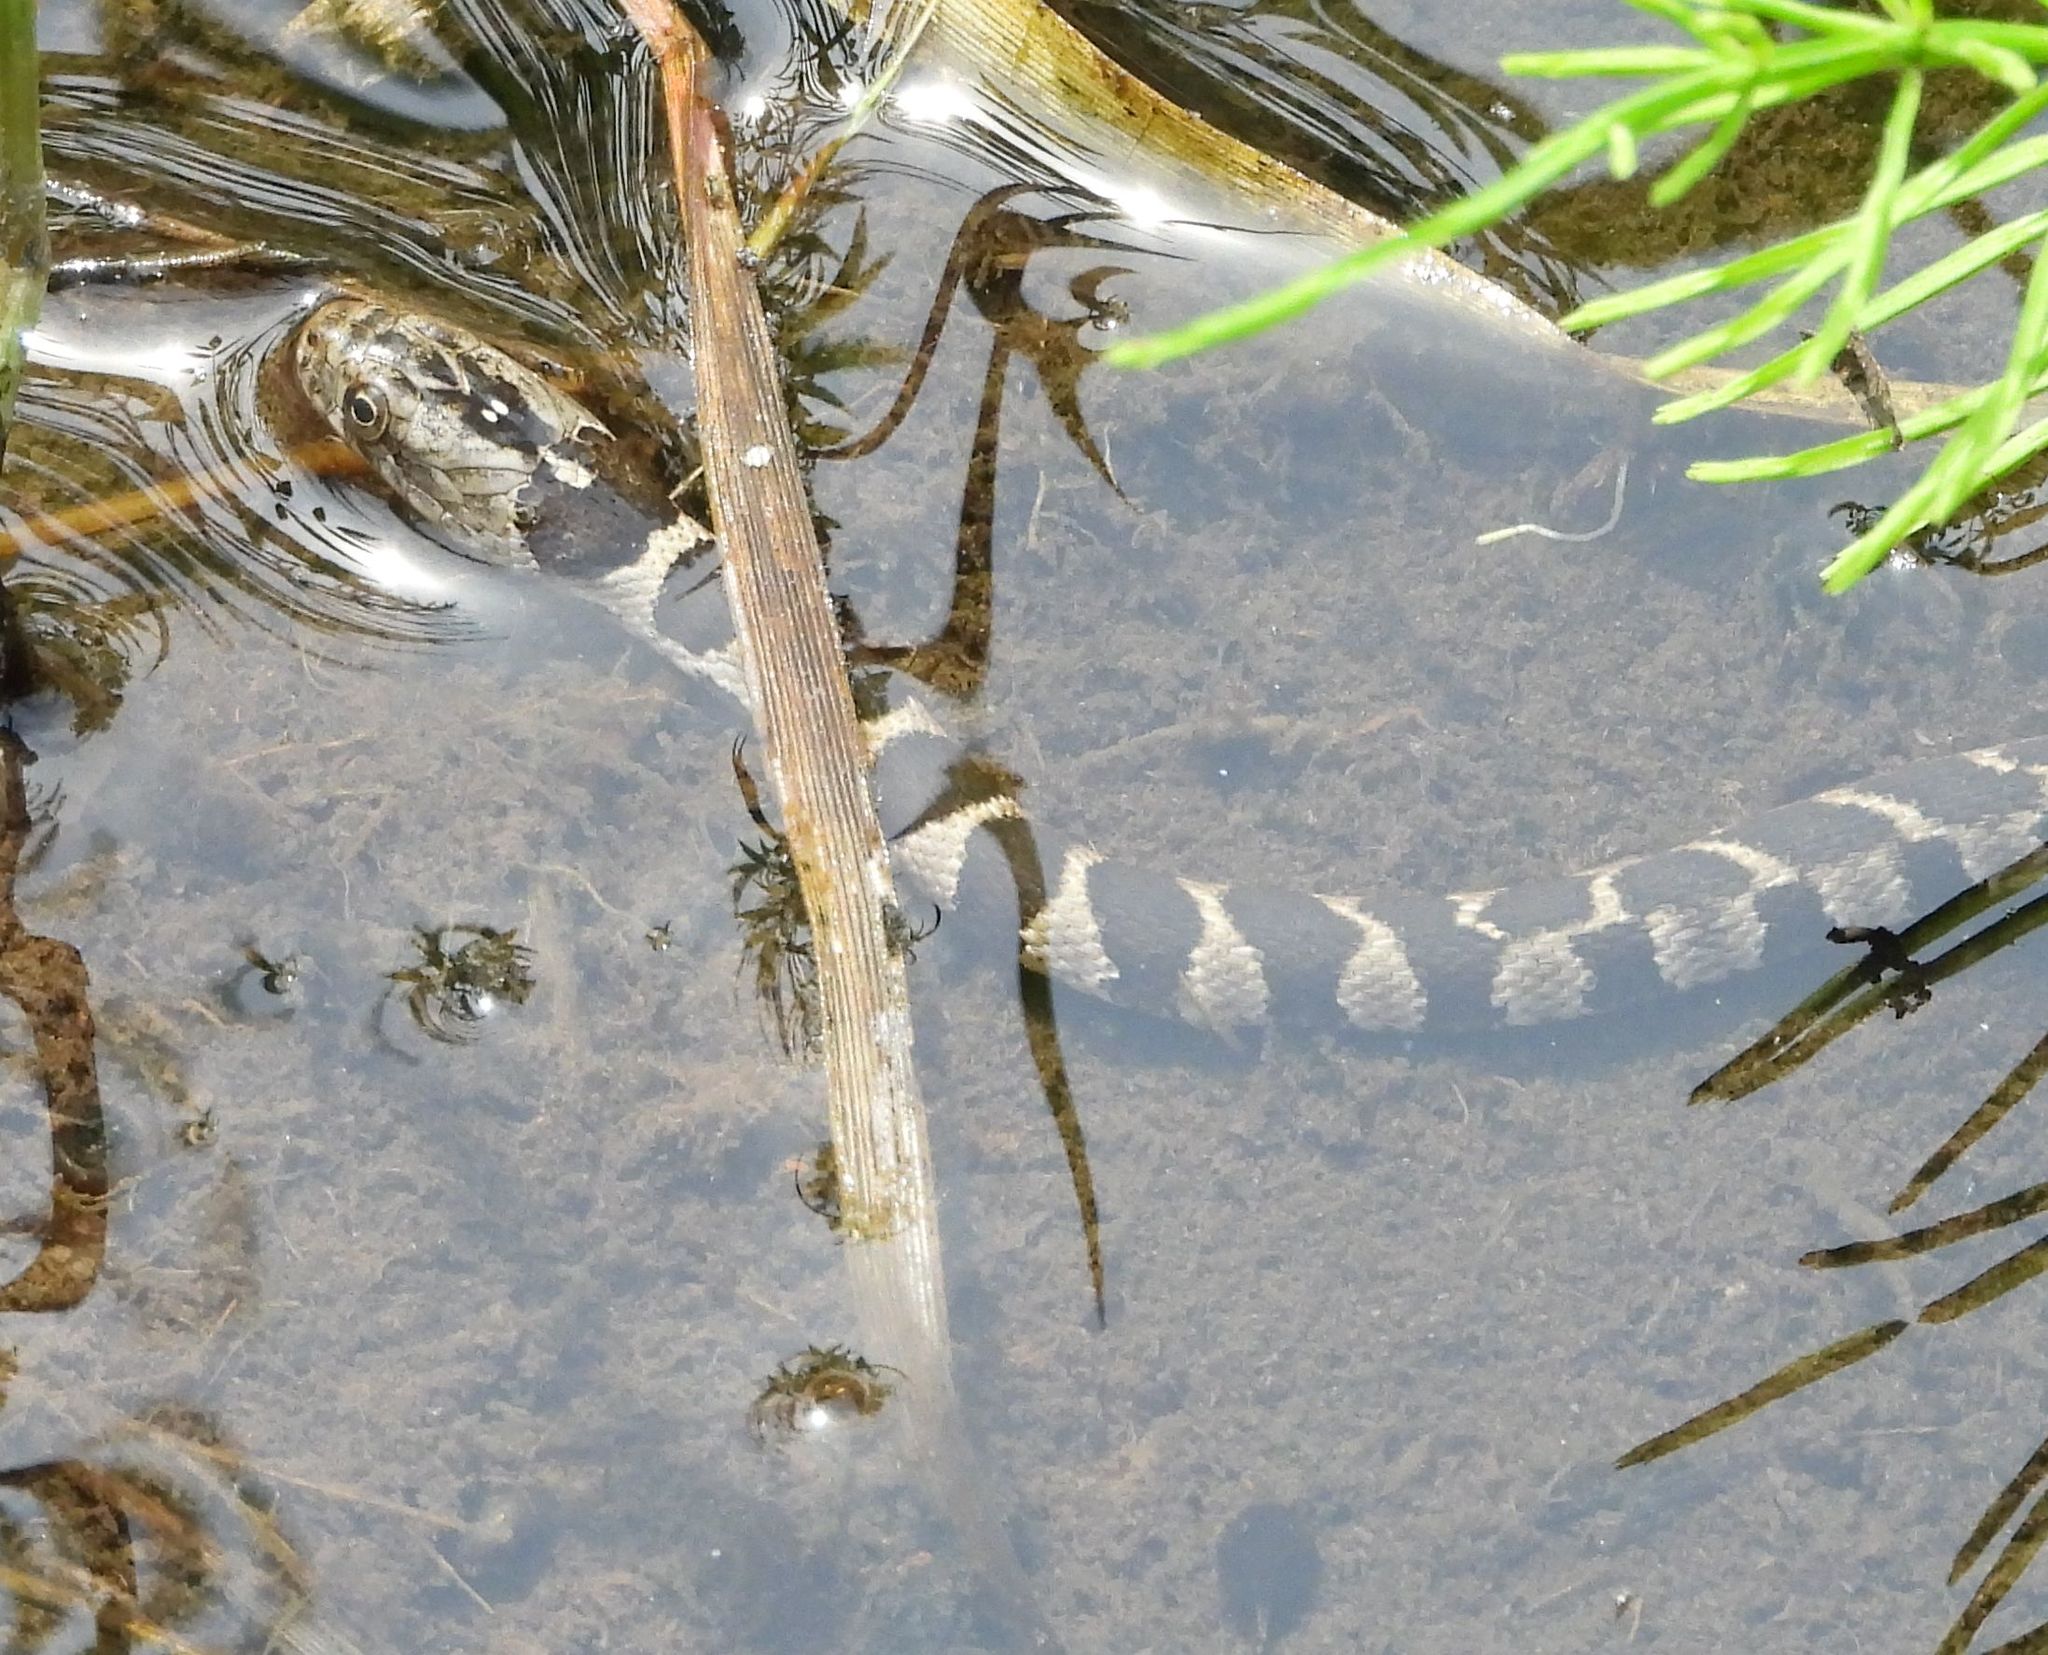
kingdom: Animalia
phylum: Chordata
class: Squamata
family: Colubridae
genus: Nerodia
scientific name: Nerodia sipedon
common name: Northern water snake
